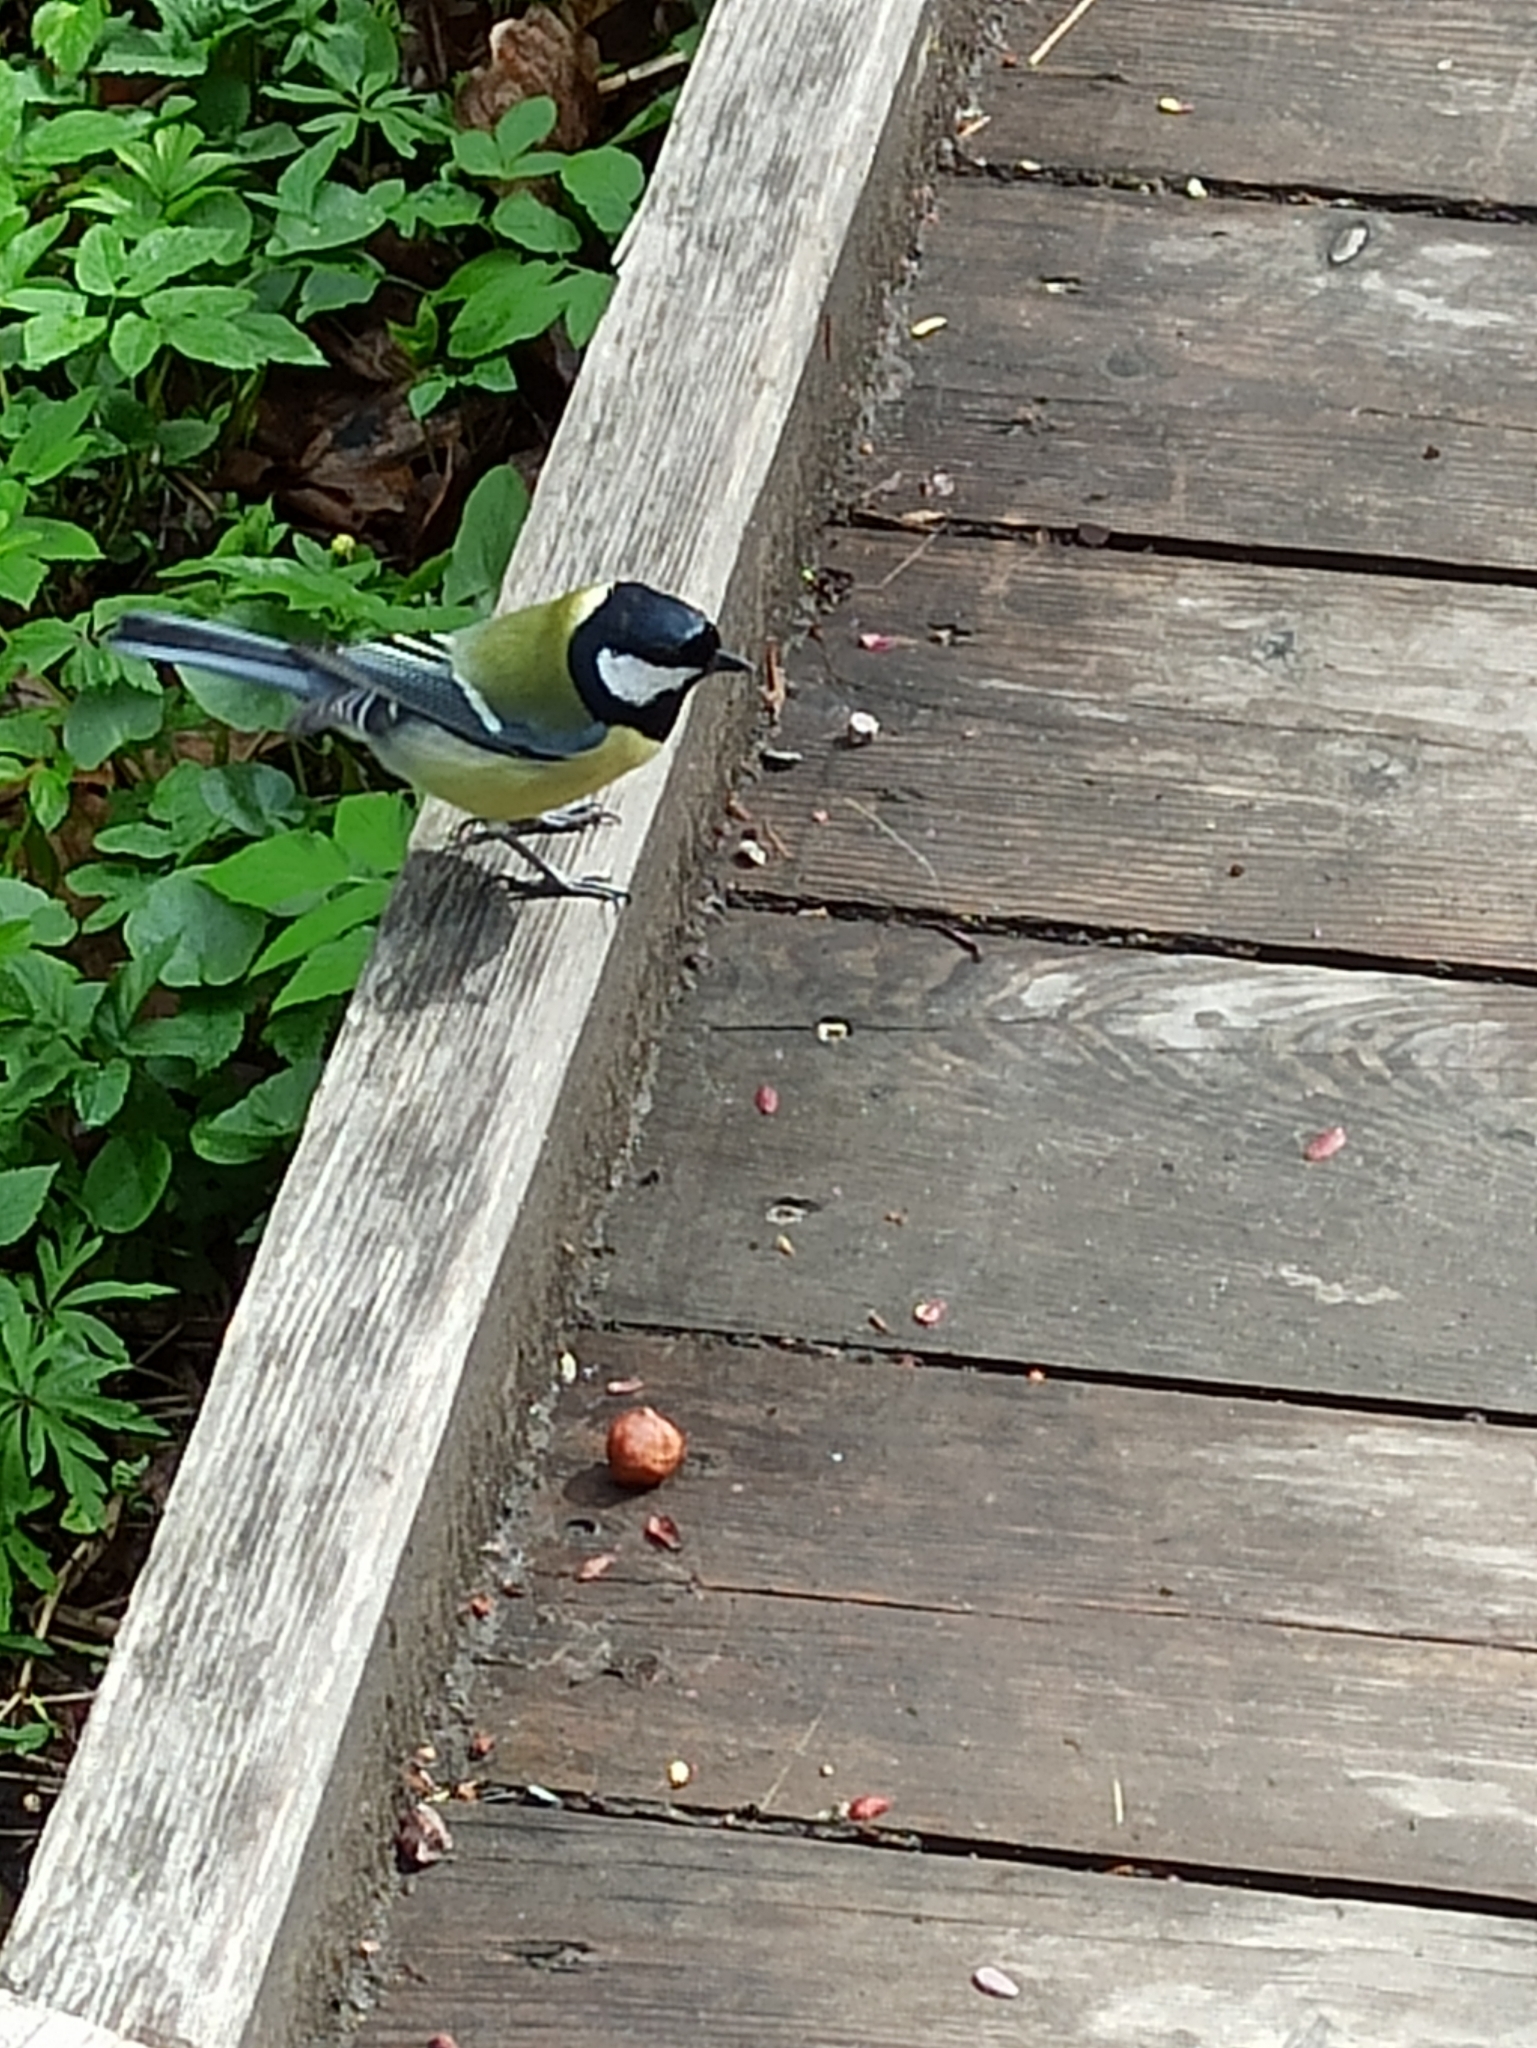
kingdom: Animalia
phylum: Chordata
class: Aves
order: Passeriformes
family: Paridae
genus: Parus
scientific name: Parus major
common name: Great tit
